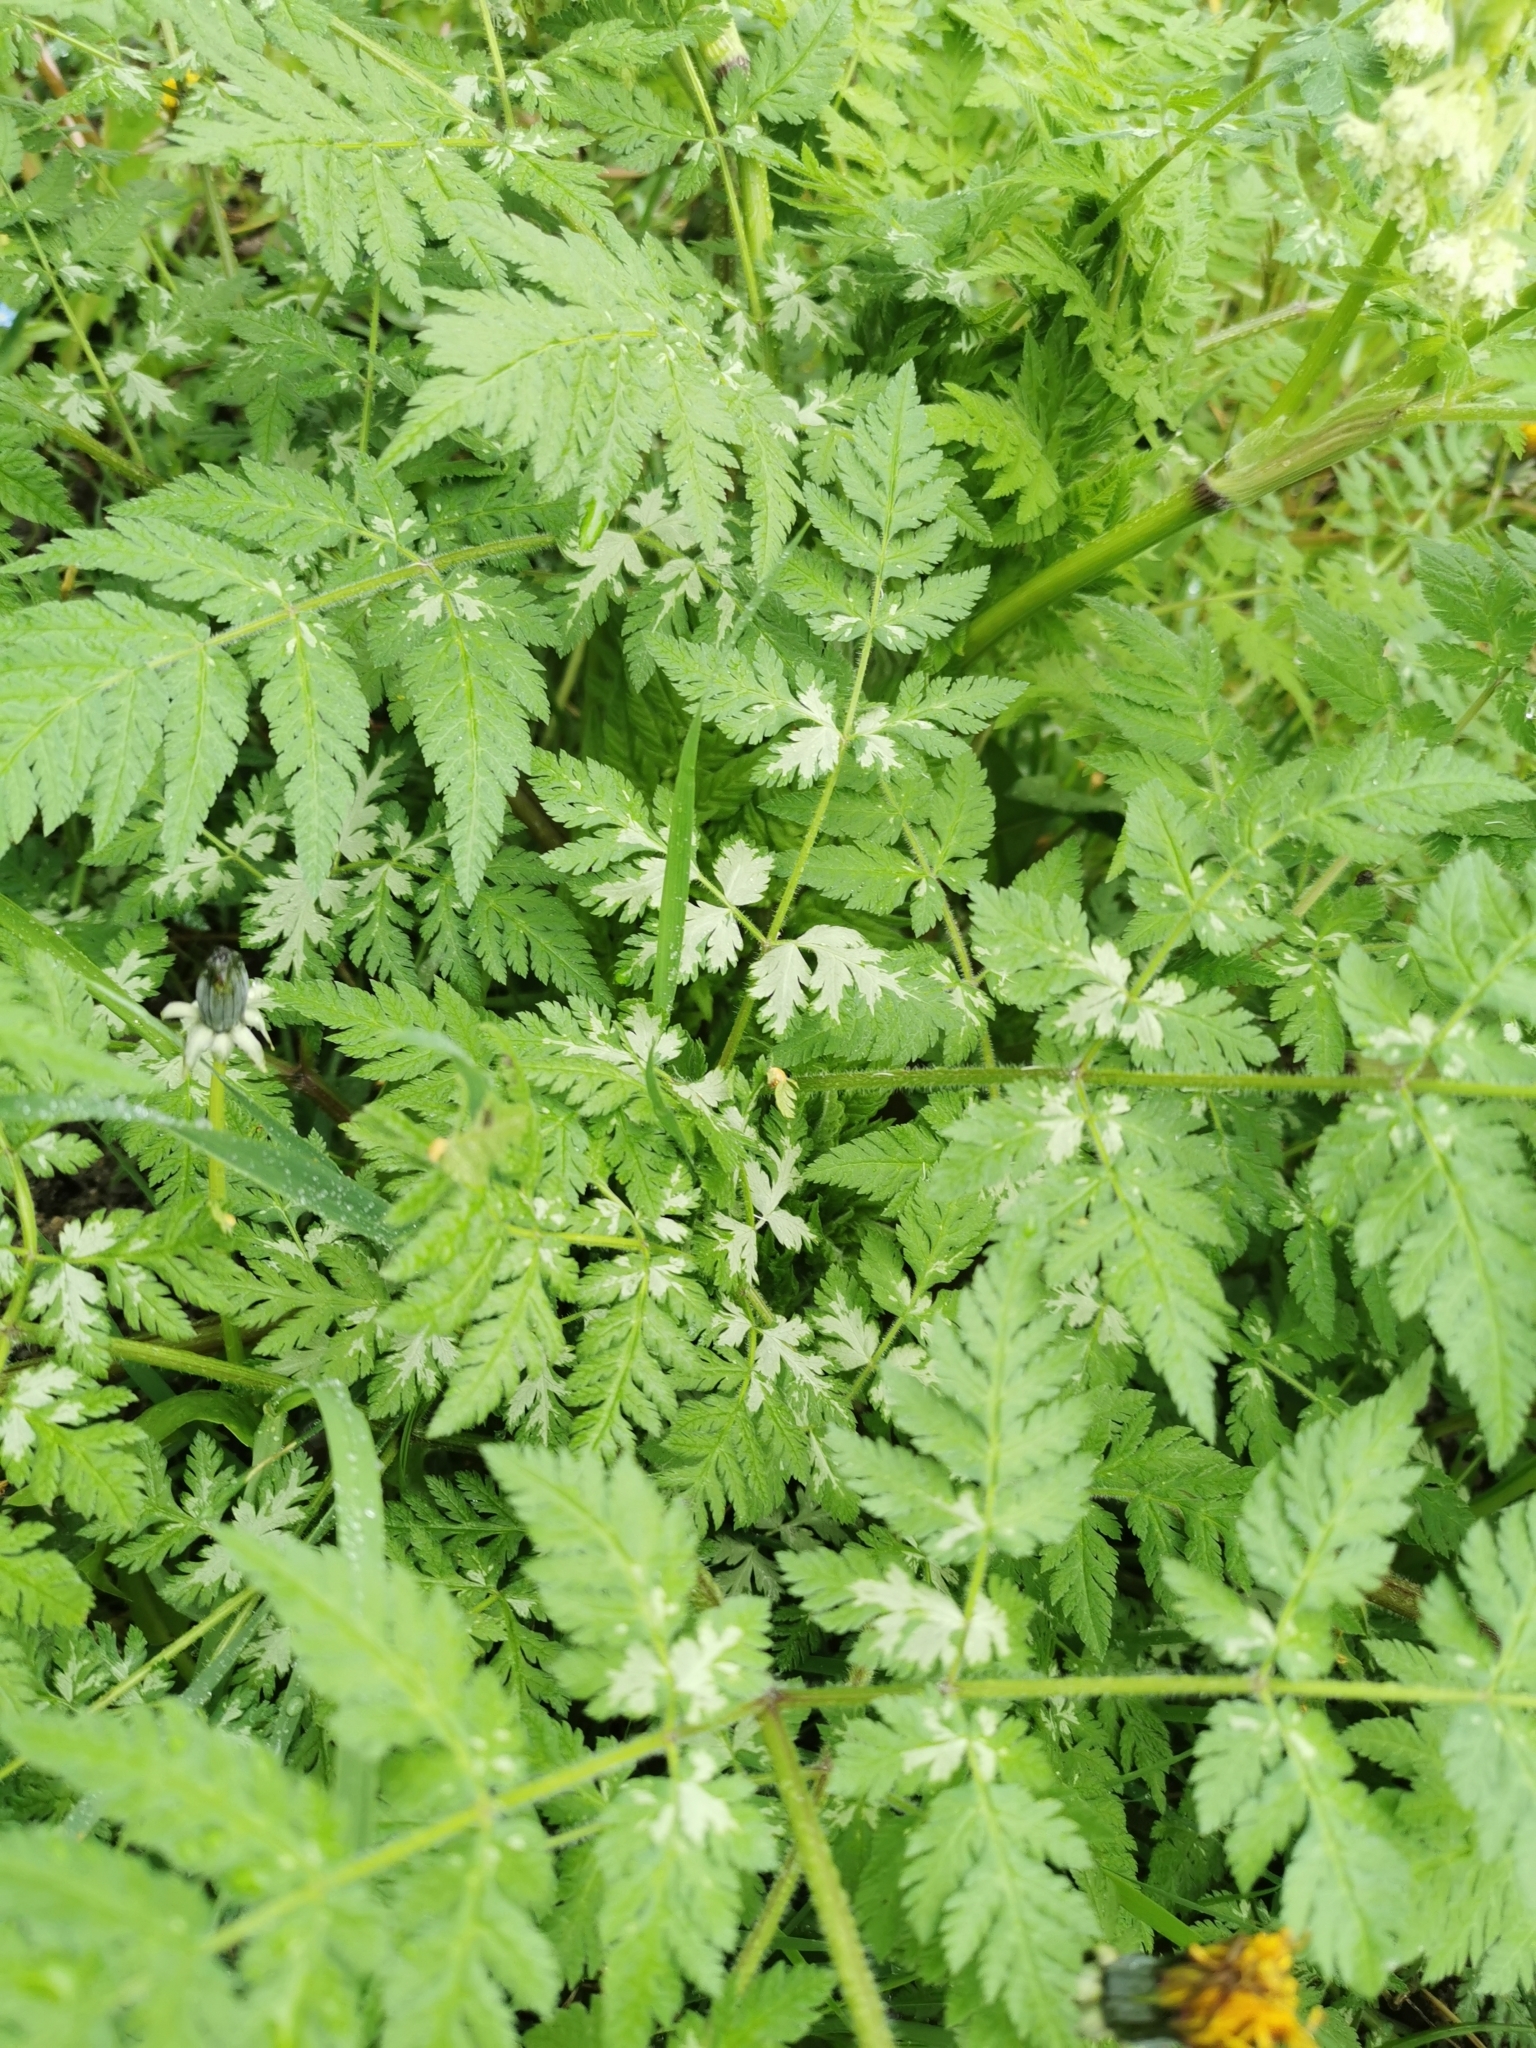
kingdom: Plantae
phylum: Tracheophyta
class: Magnoliopsida
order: Apiales
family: Apiaceae
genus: Myrrhis
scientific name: Myrrhis odorata
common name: Sweet cicely
